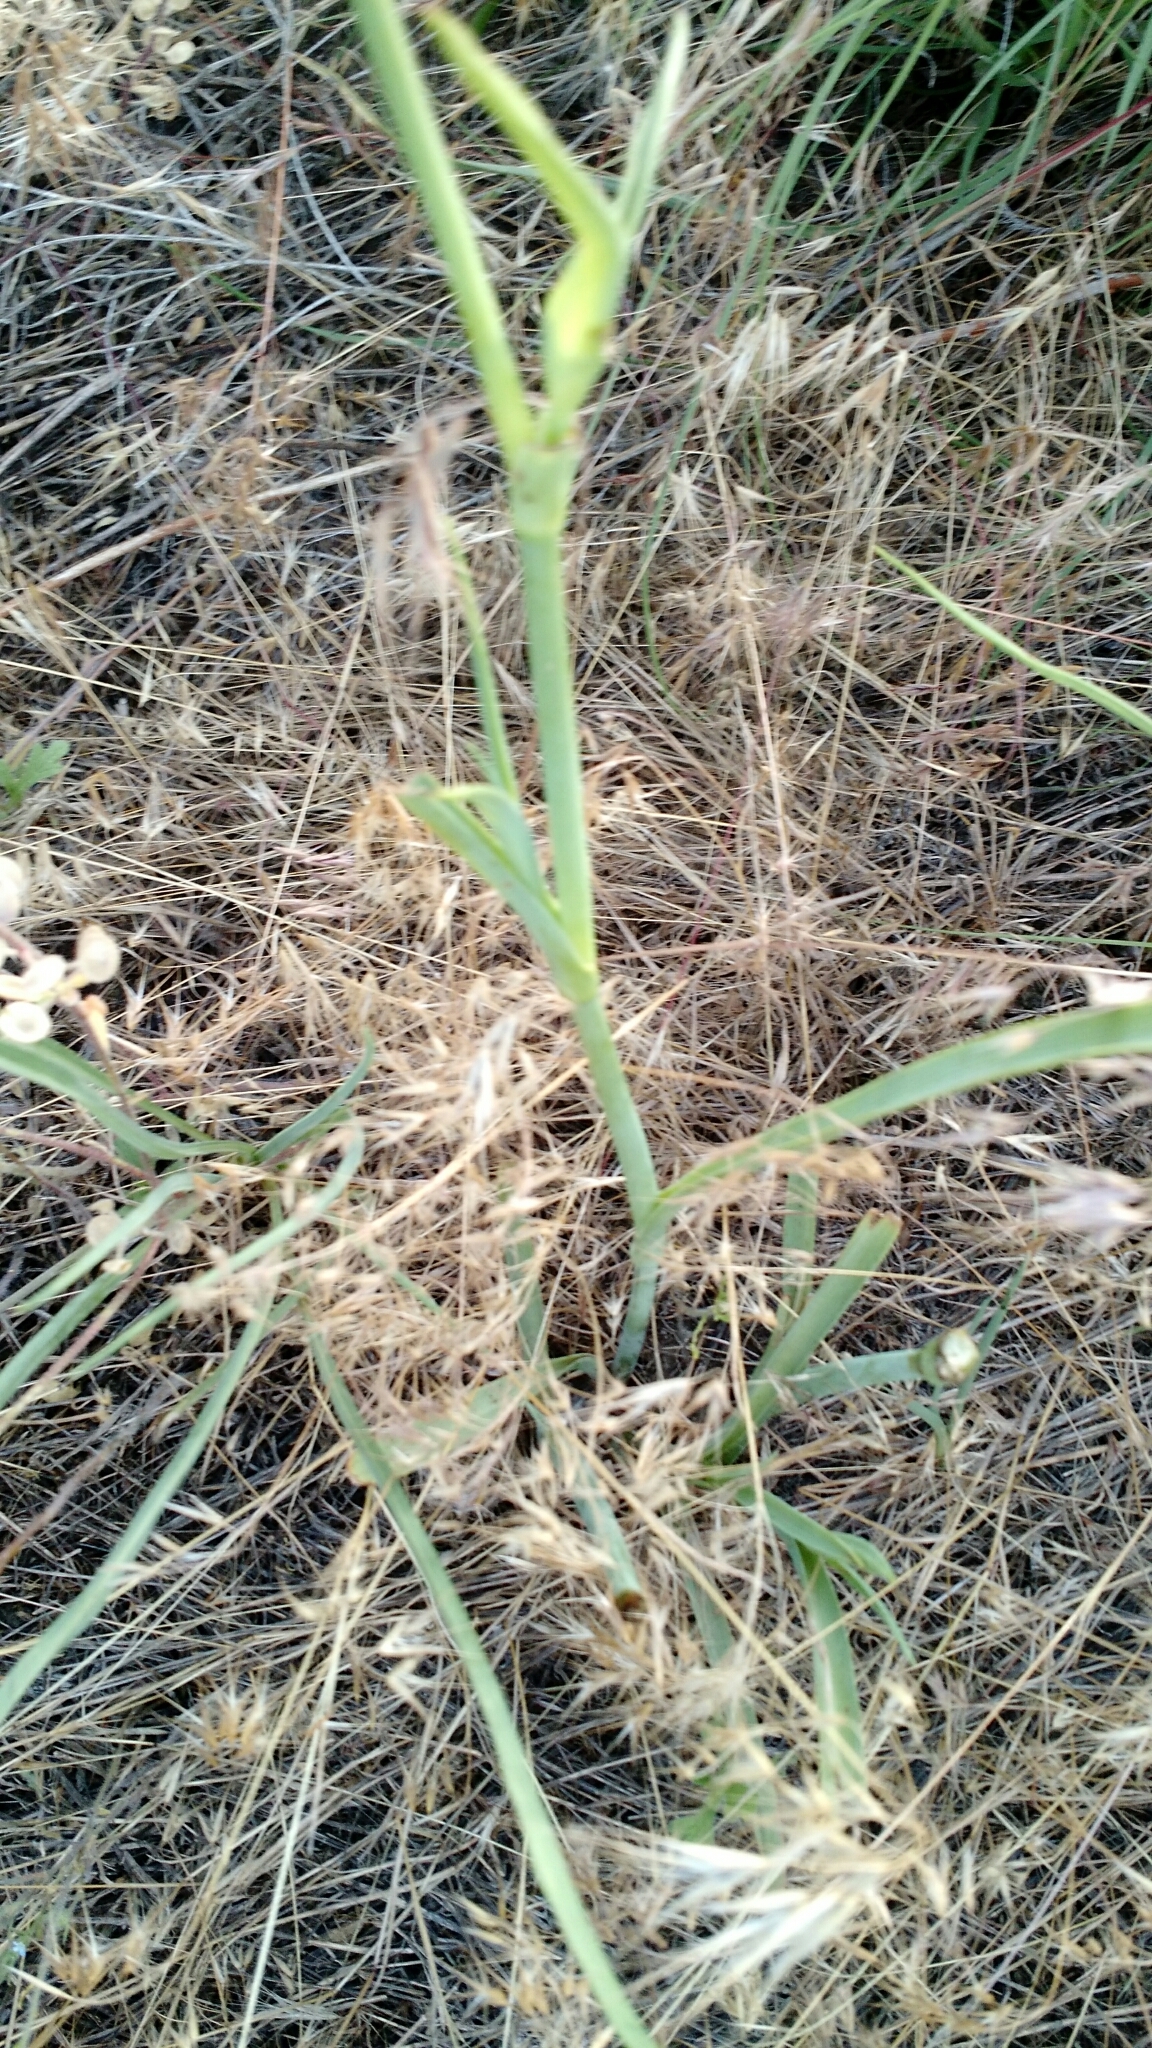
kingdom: Plantae
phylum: Tracheophyta
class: Liliopsida
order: Commelinales
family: Commelinaceae
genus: Tradescantia
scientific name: Tradescantia occidentalis
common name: Prairie spiderwort
